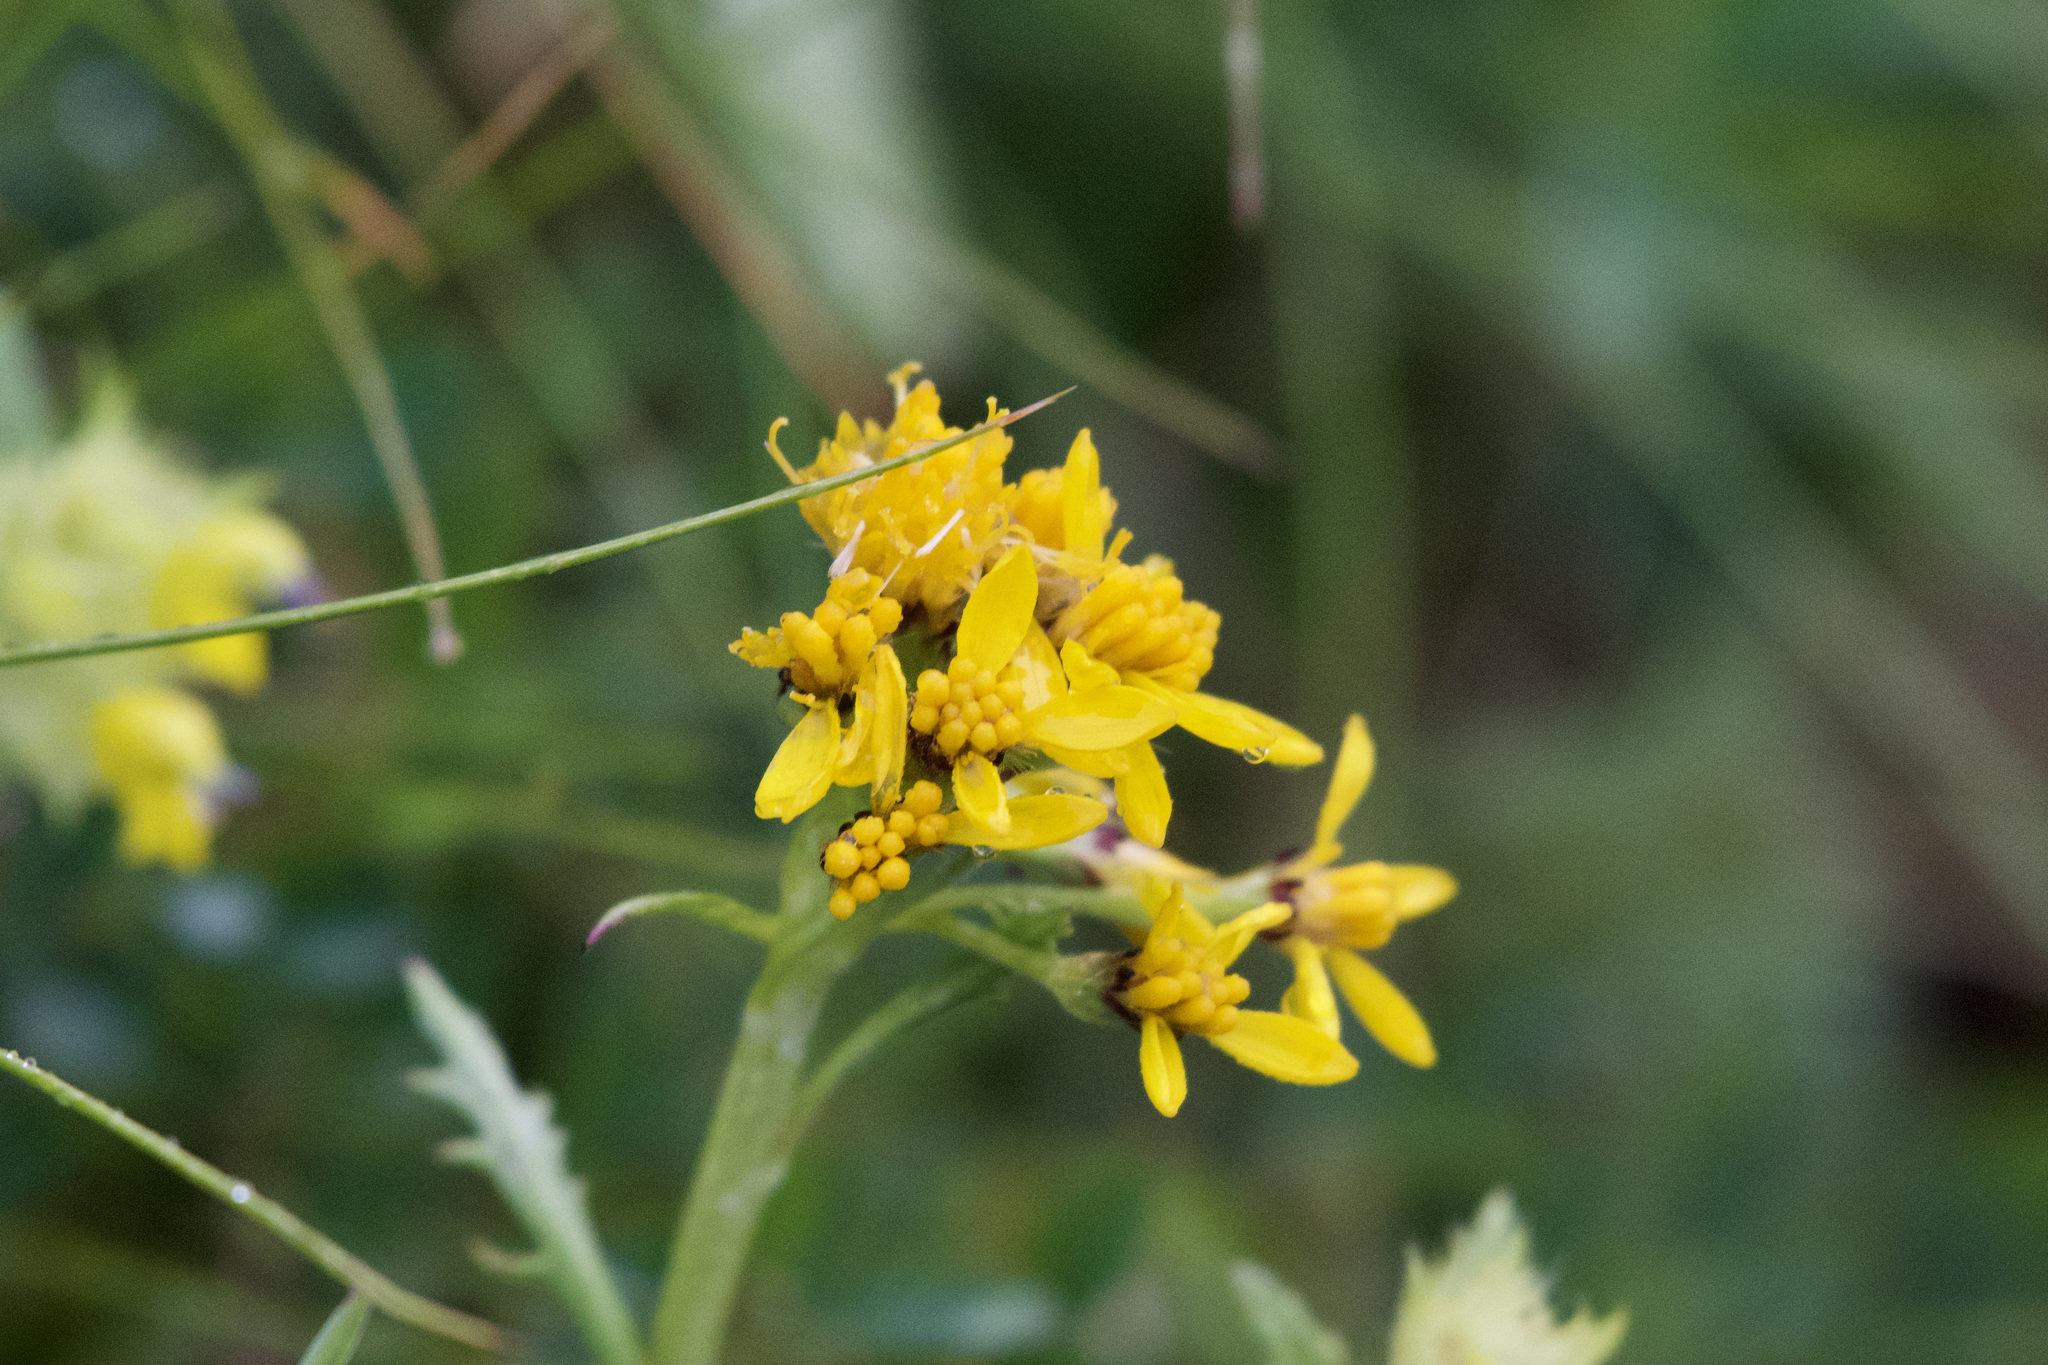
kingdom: Plantae
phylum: Tracheophyta
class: Magnoliopsida
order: Asterales
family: Asteraceae
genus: Jacobaea
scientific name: Jacobaea carniolica
